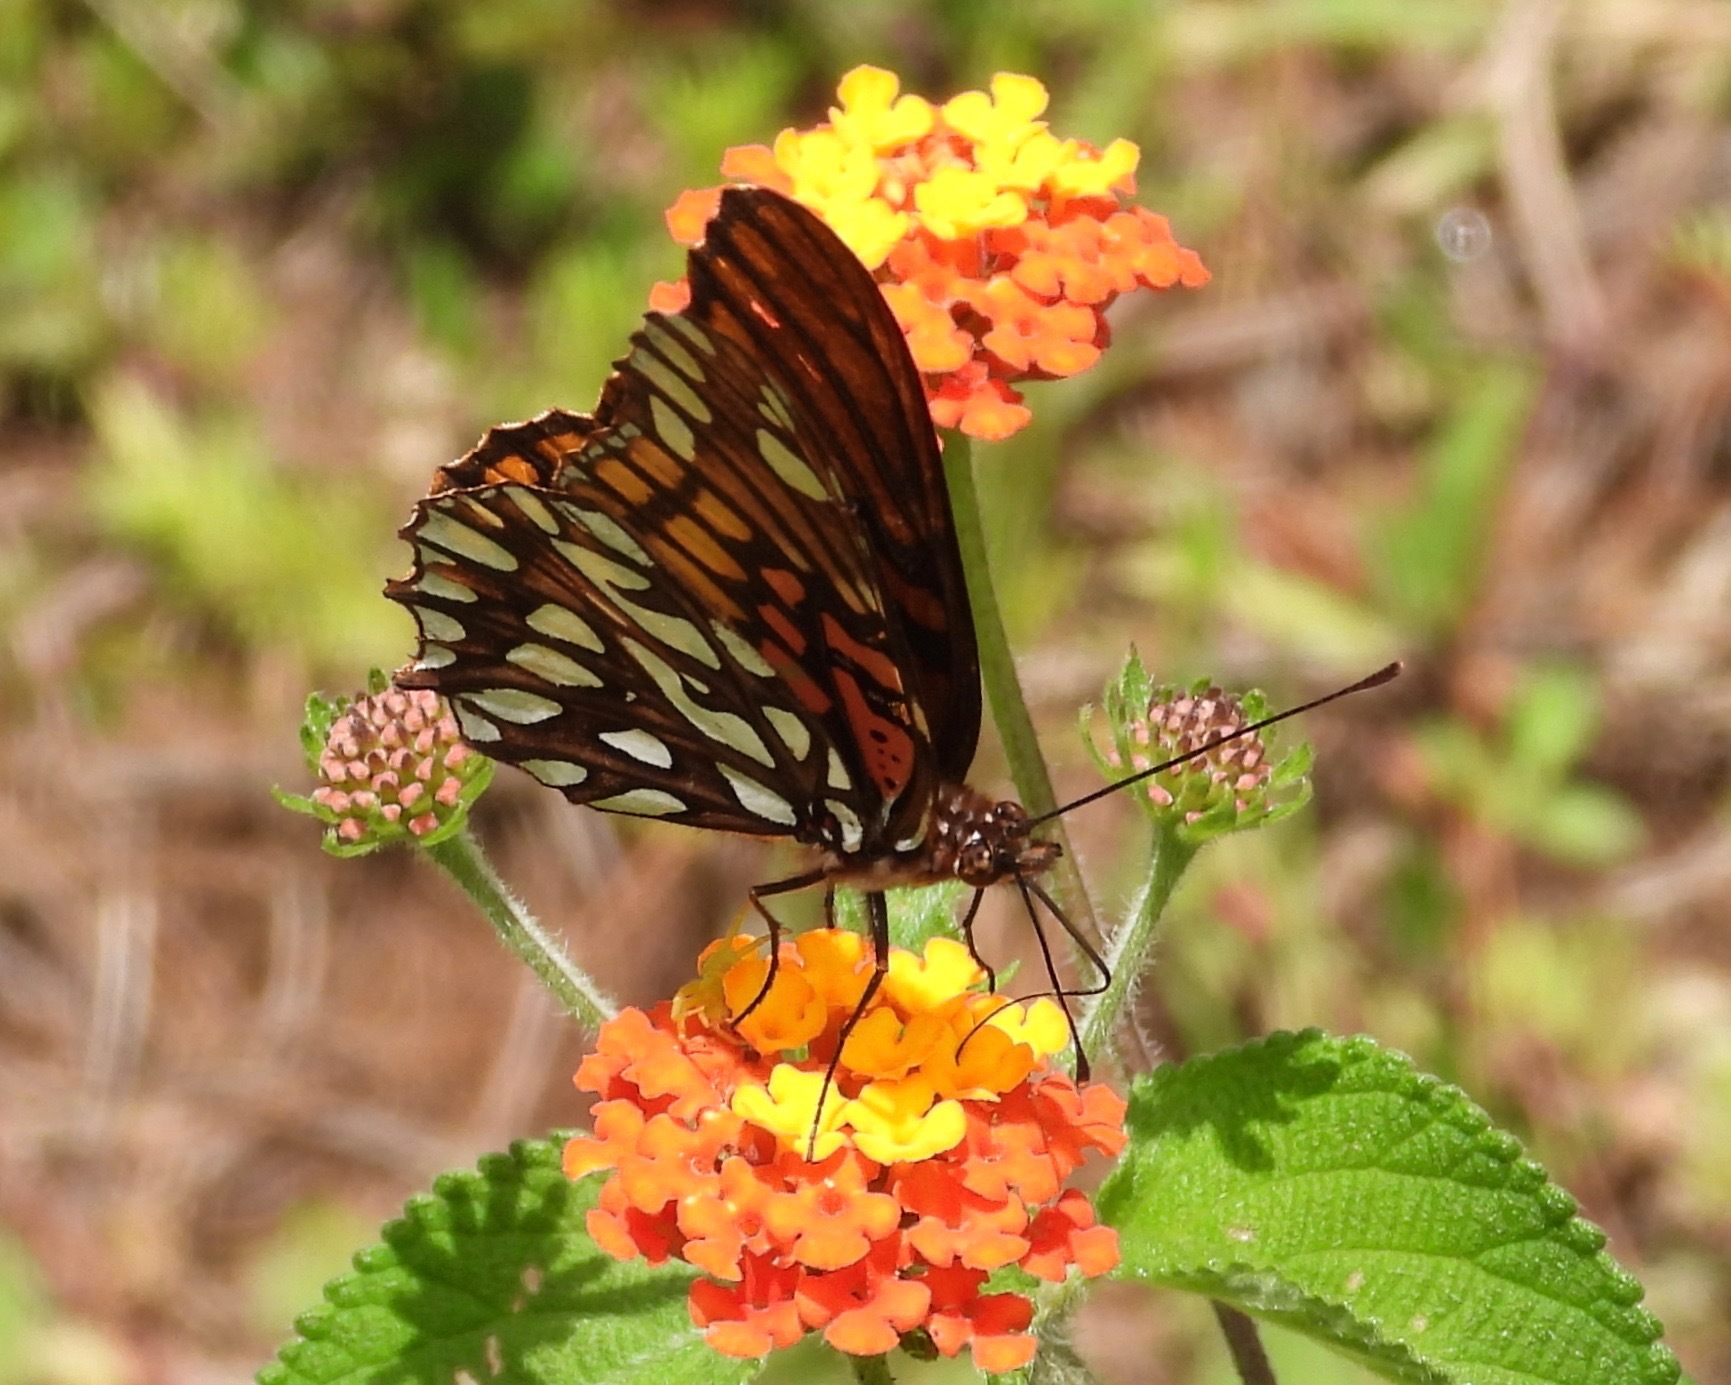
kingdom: Animalia
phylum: Arthropoda
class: Insecta
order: Lepidoptera
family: Nymphalidae
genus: Dione
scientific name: Dione moneta
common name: Mexican silverspot
